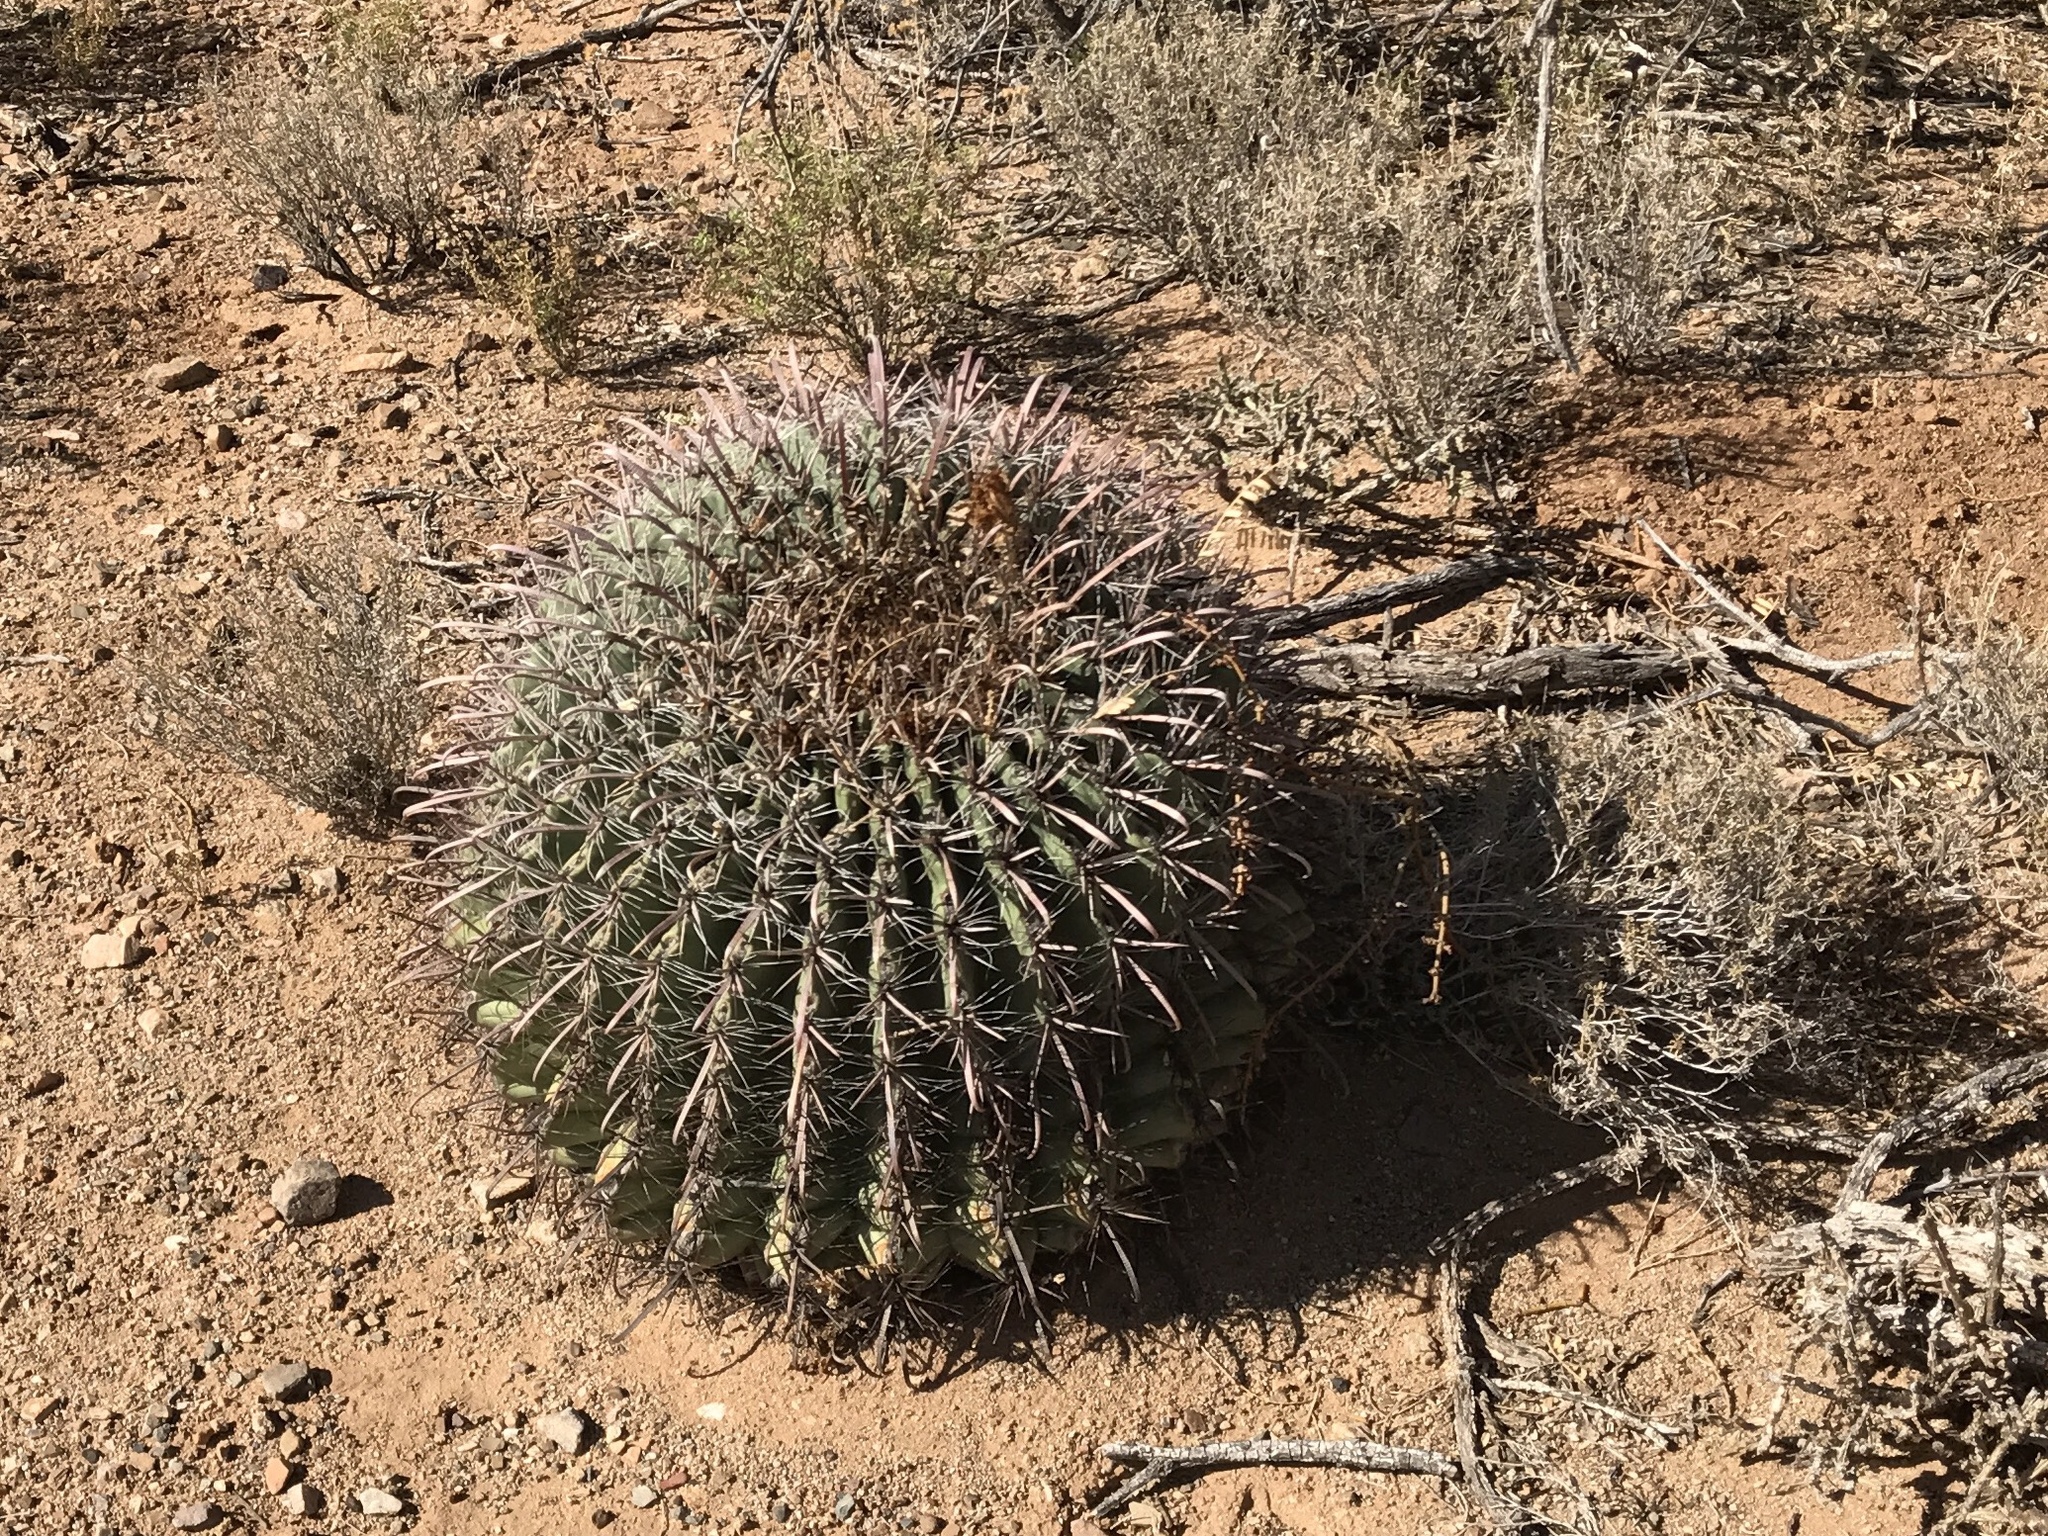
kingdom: Plantae
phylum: Tracheophyta
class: Magnoliopsida
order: Caryophyllales
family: Cactaceae
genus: Ferocactus
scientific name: Ferocactus wislizeni
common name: Candy barrel cactus
